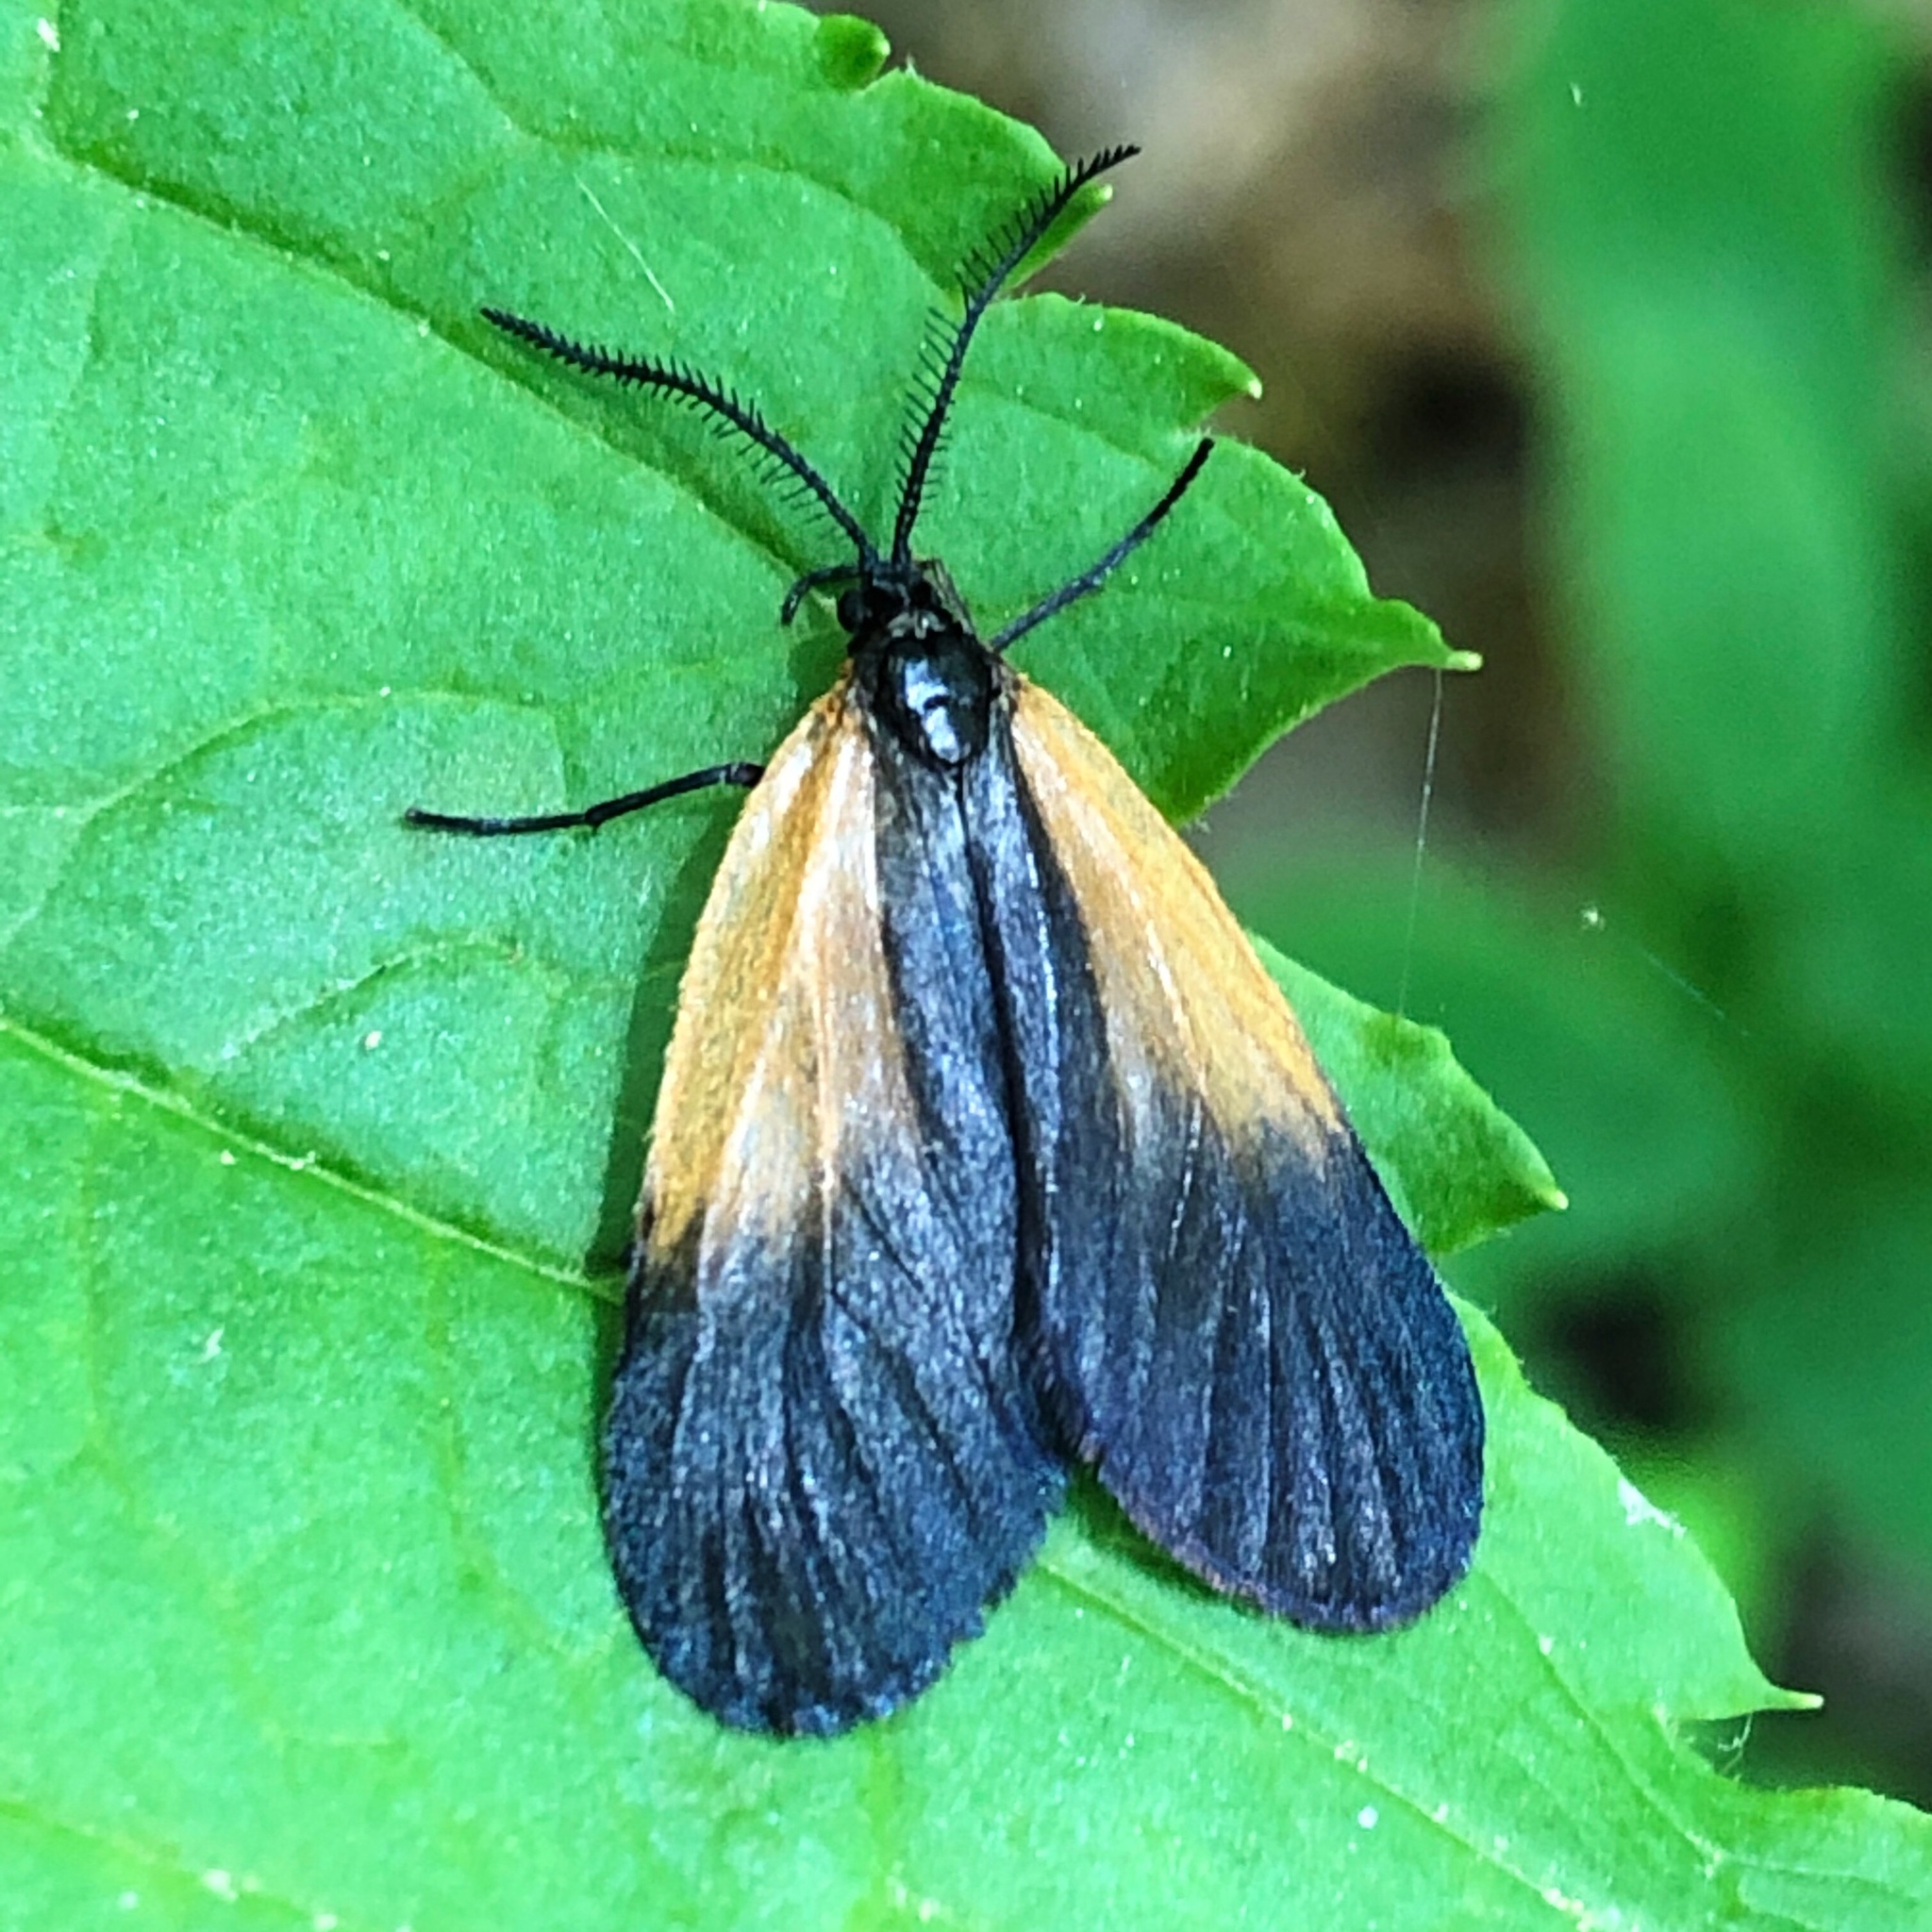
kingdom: Animalia
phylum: Arthropoda
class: Insecta
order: Lepidoptera
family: Zygaenidae
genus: Malthaca
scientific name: Malthaca dimidiata
